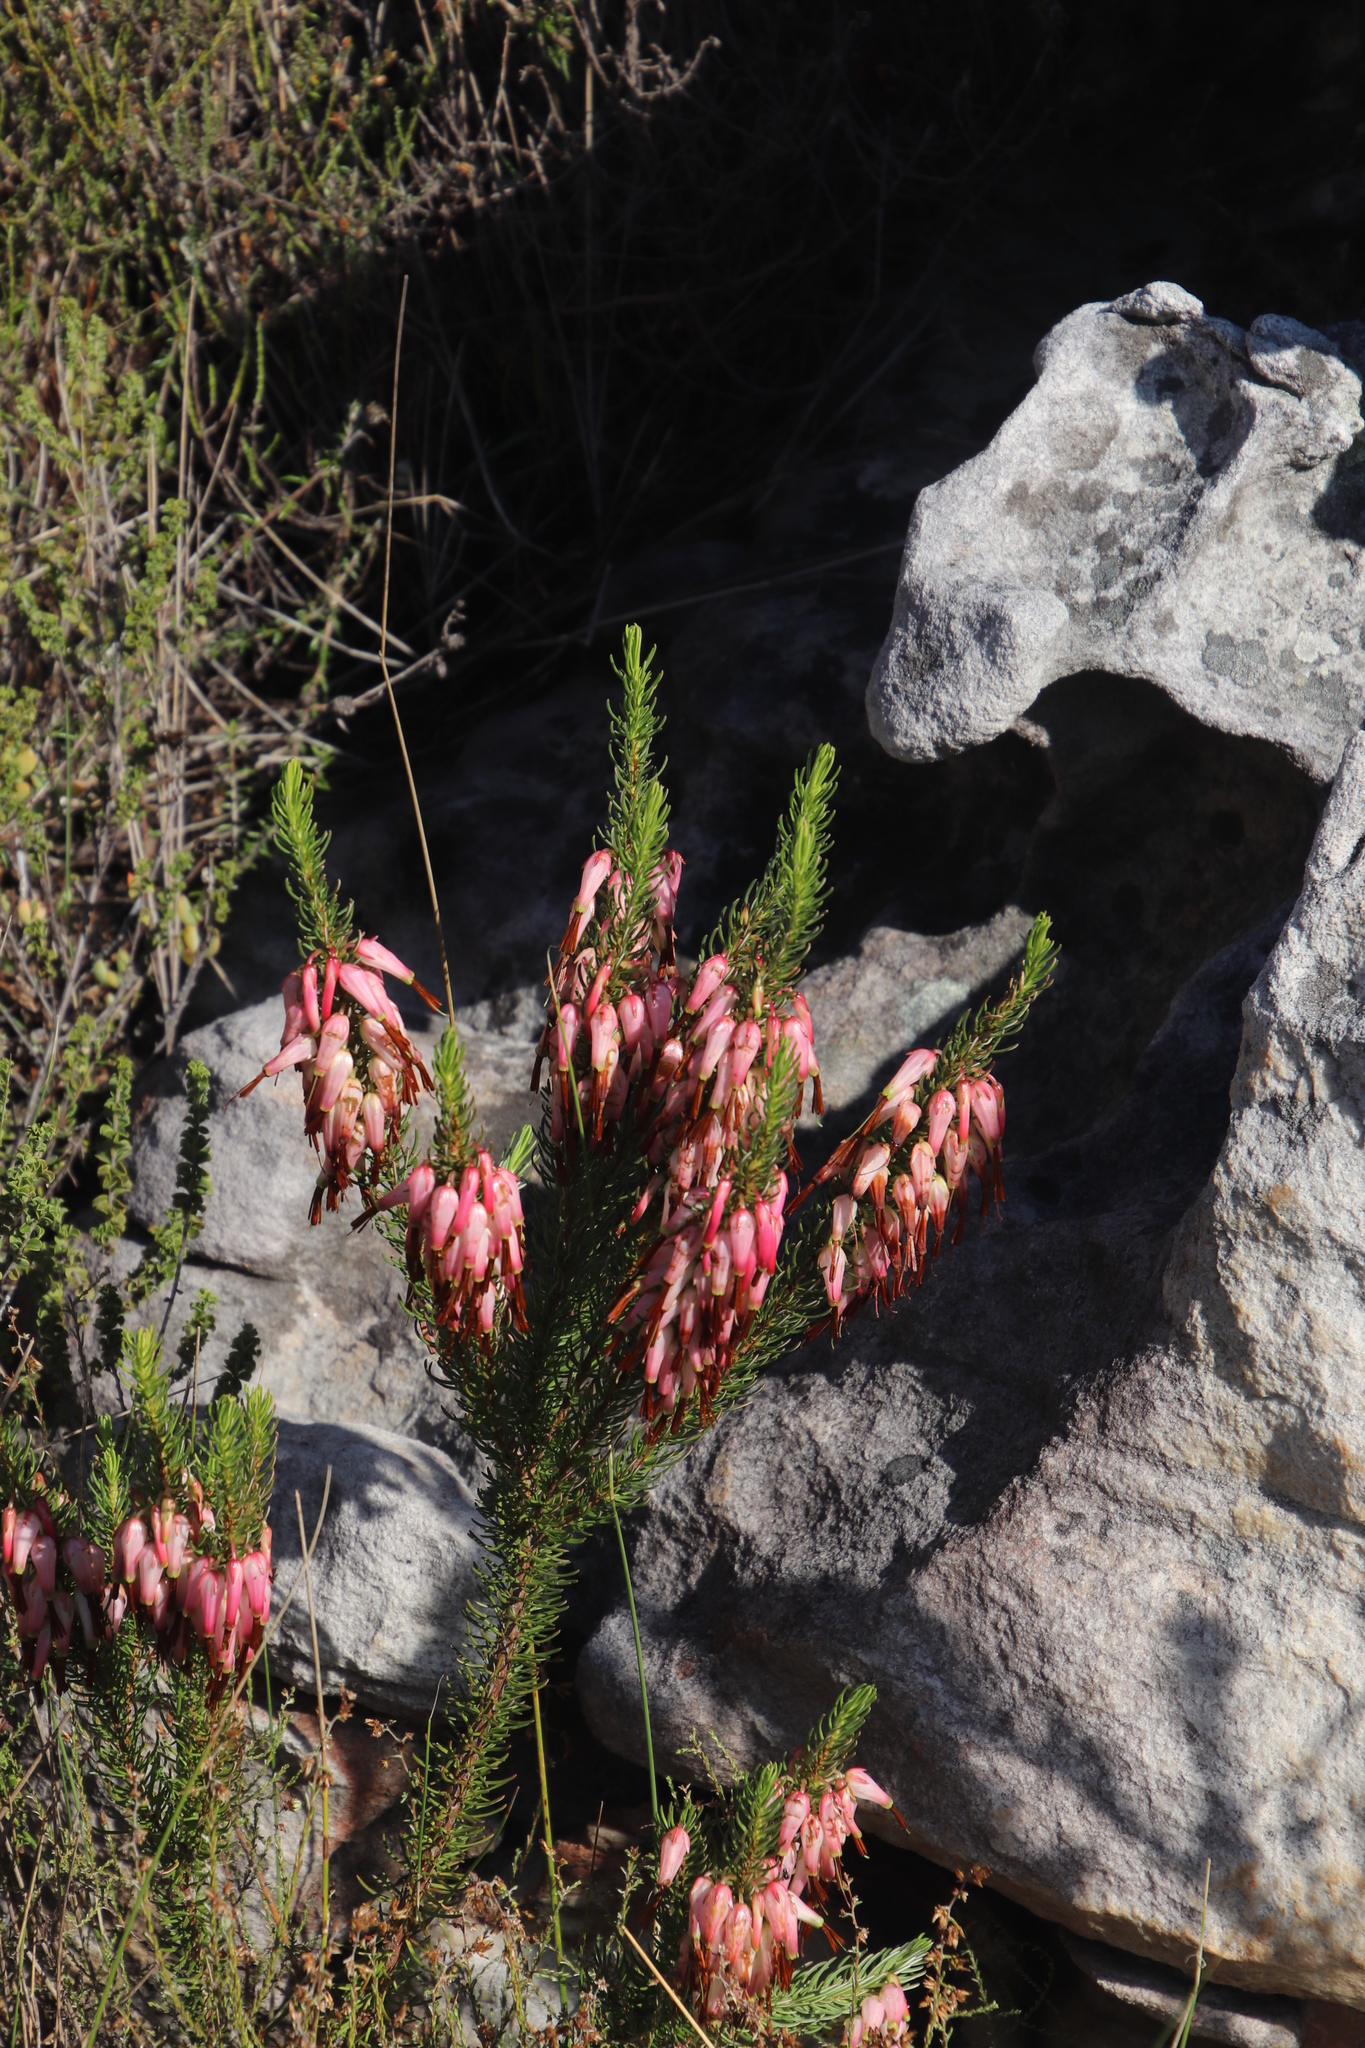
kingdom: Plantae
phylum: Tracheophyta
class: Magnoliopsida
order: Ericales
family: Ericaceae
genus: Erica
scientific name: Erica plukenetii
